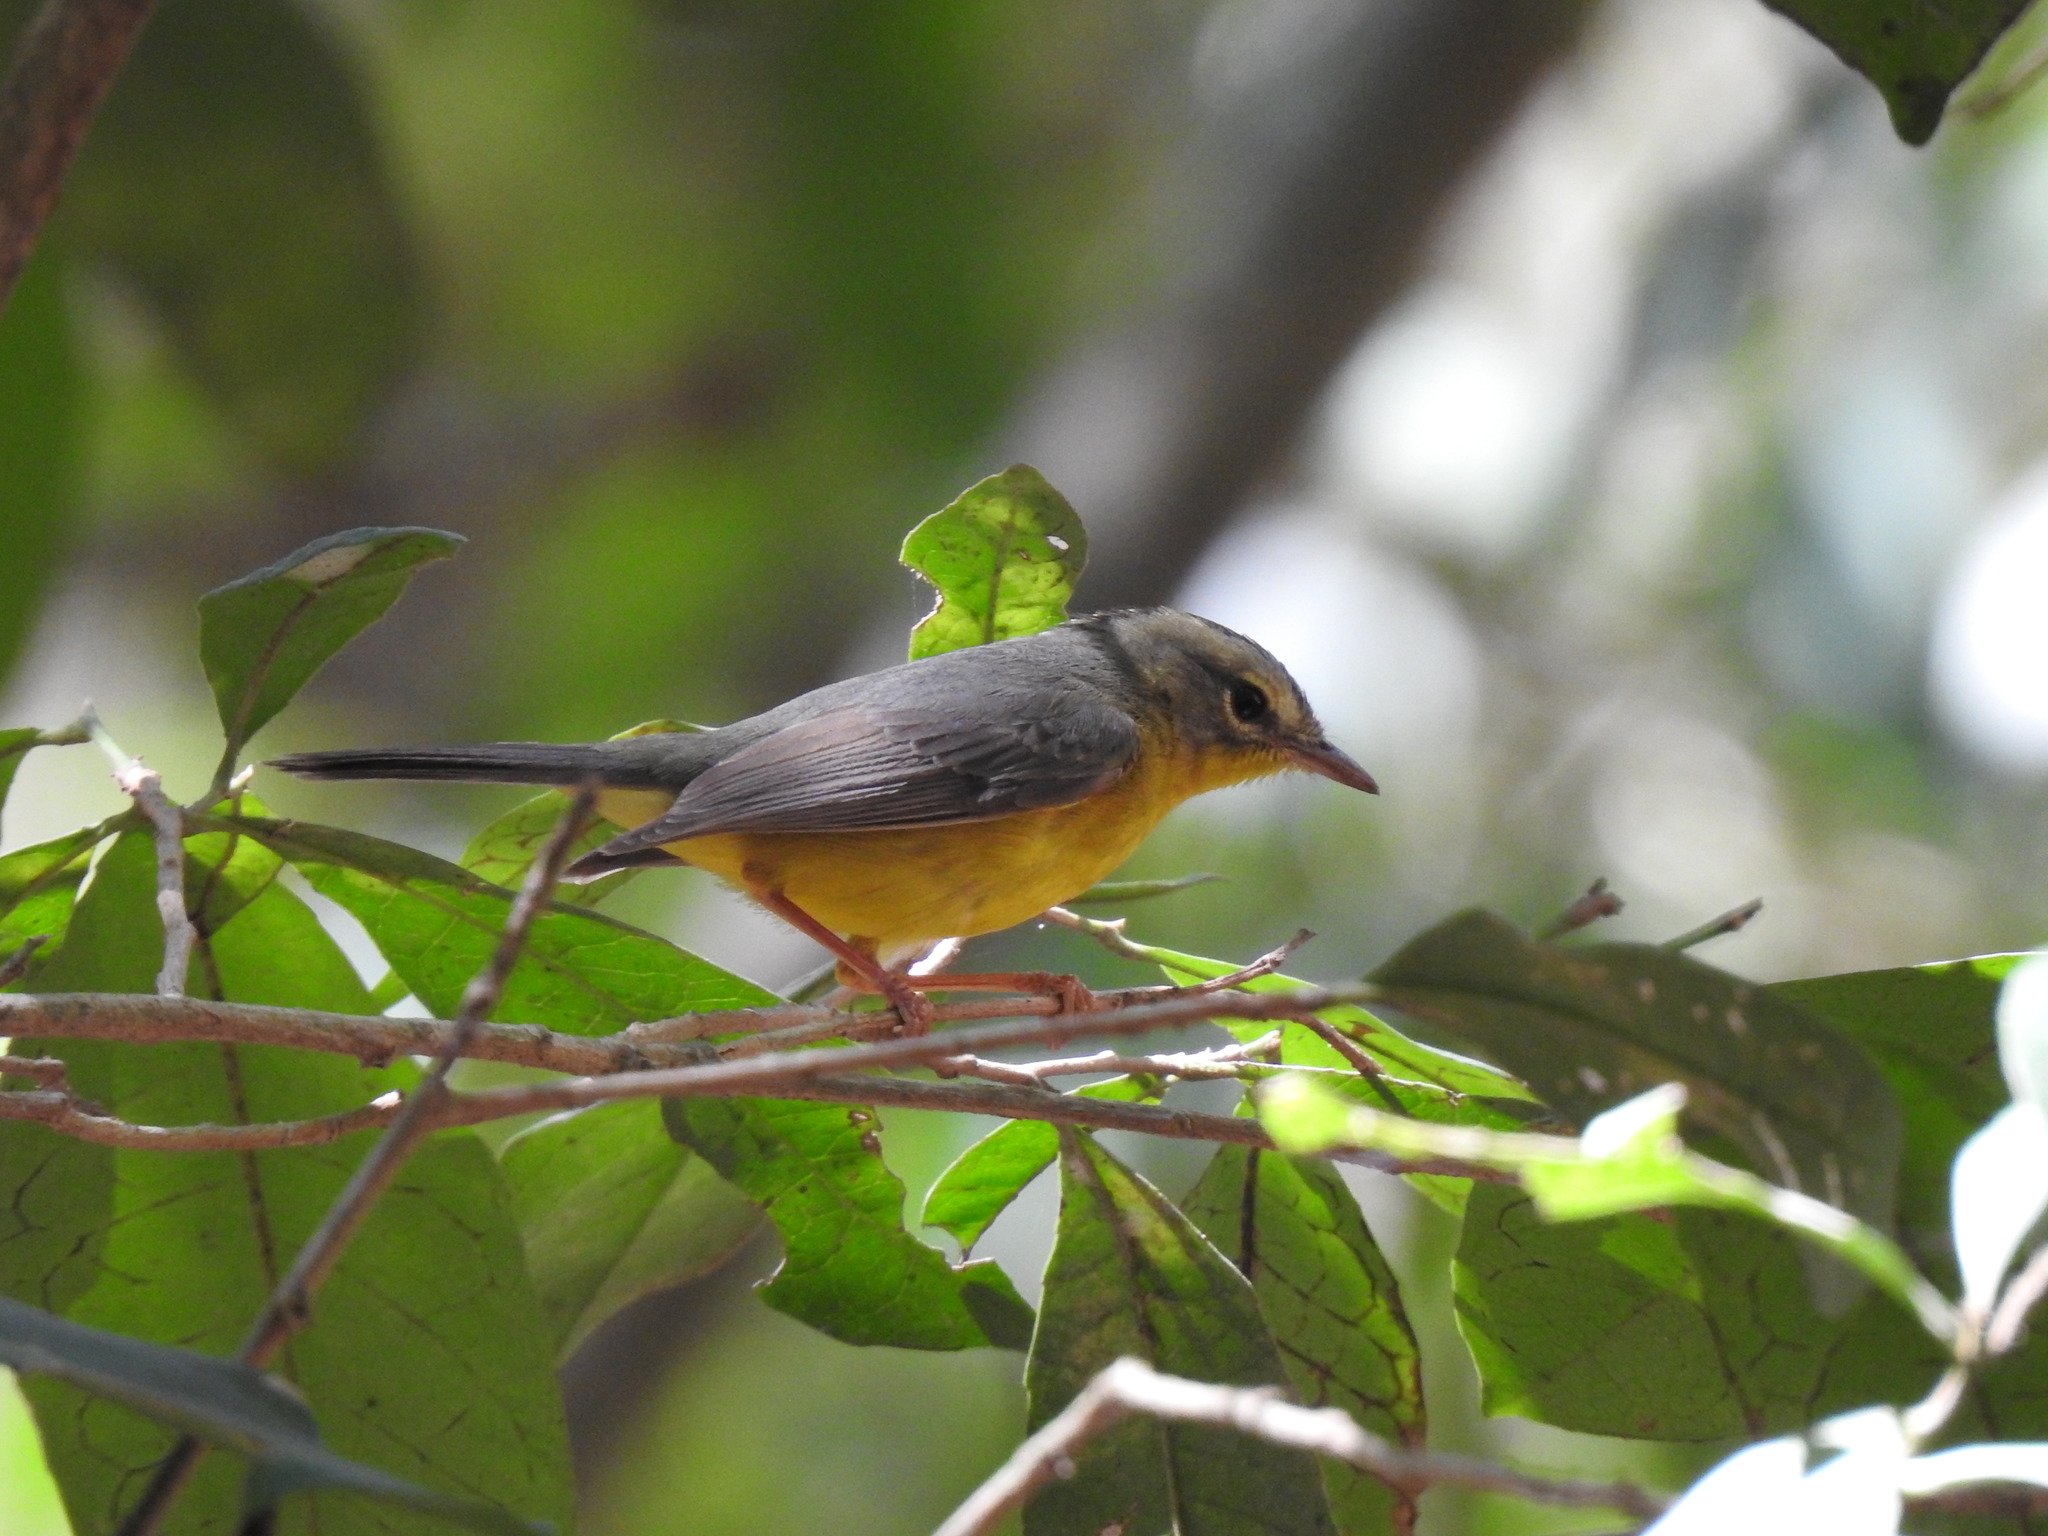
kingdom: Animalia
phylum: Chordata
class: Aves
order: Passeriformes
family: Parulidae
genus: Basileuterus
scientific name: Basileuterus culicivorus
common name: Golden-crowned warbler
